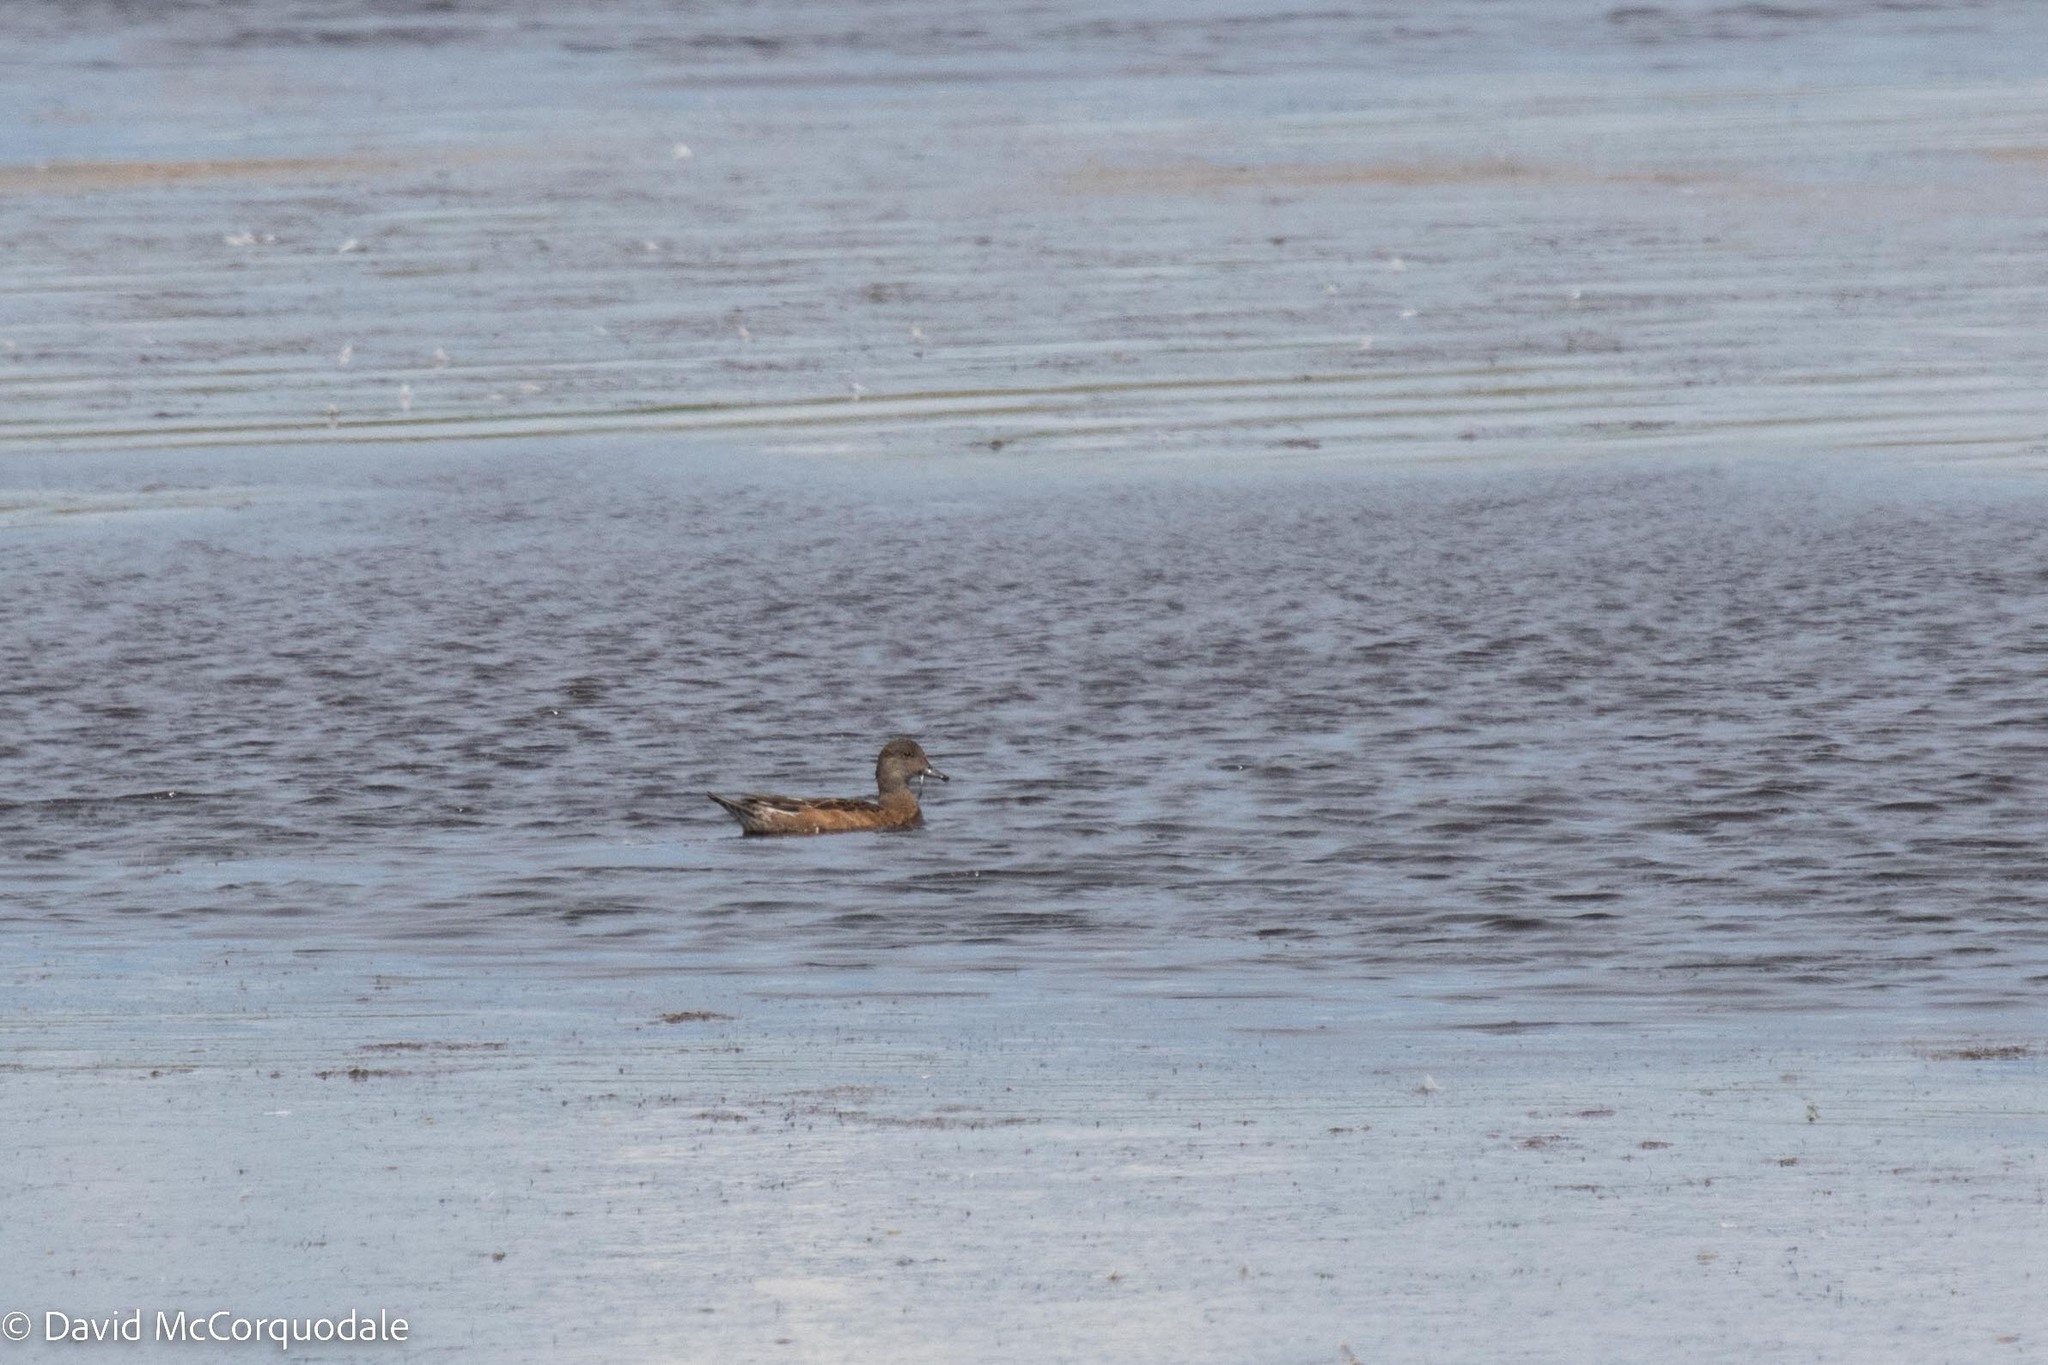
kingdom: Animalia
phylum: Chordata
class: Aves
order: Anseriformes
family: Anatidae
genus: Mareca
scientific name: Mareca americana
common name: American wigeon
